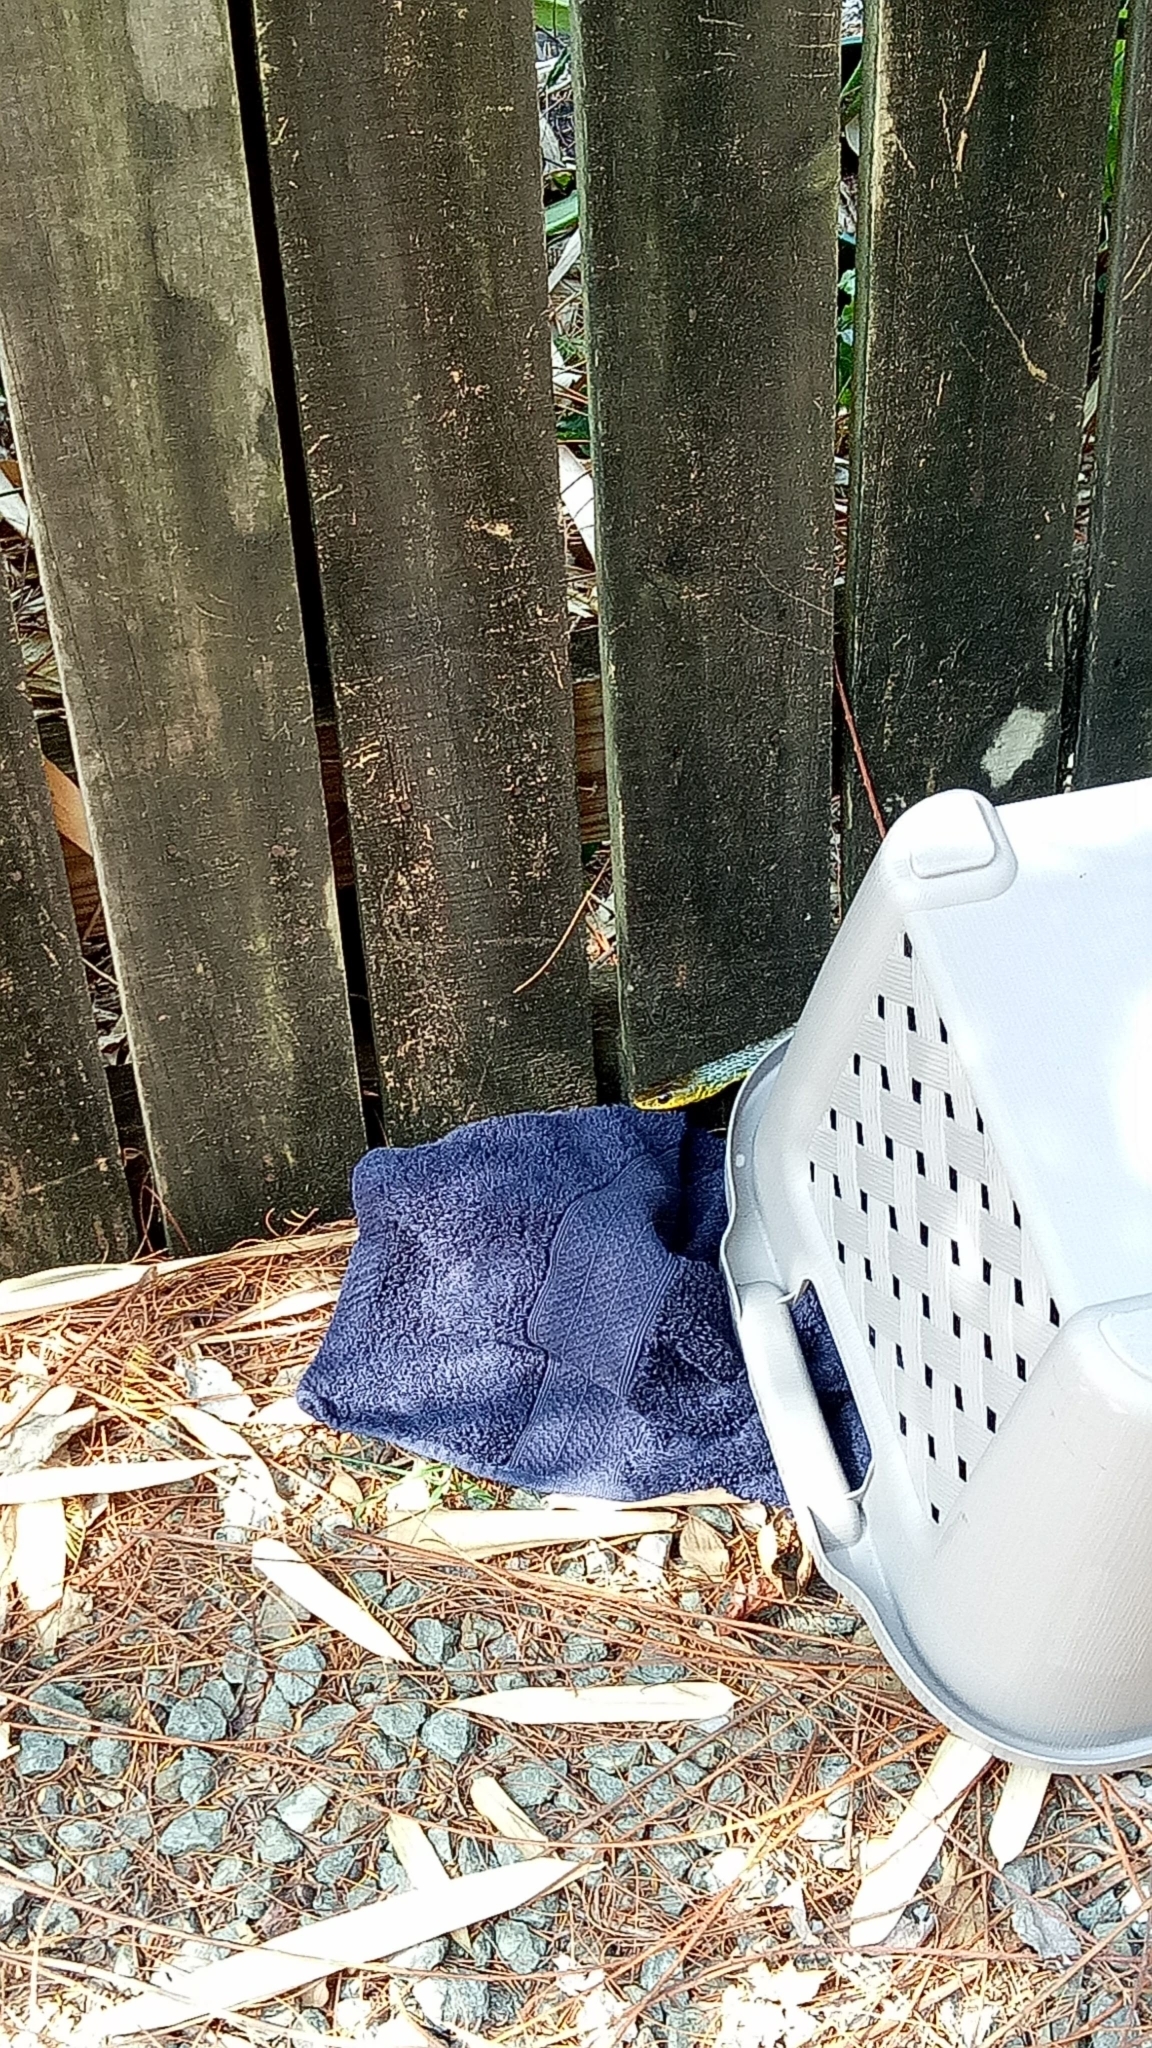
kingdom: Animalia
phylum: Chordata
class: Squamata
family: Colubridae
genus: Dendrelaphis
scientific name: Dendrelaphis punctulatus
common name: Common tree snake
